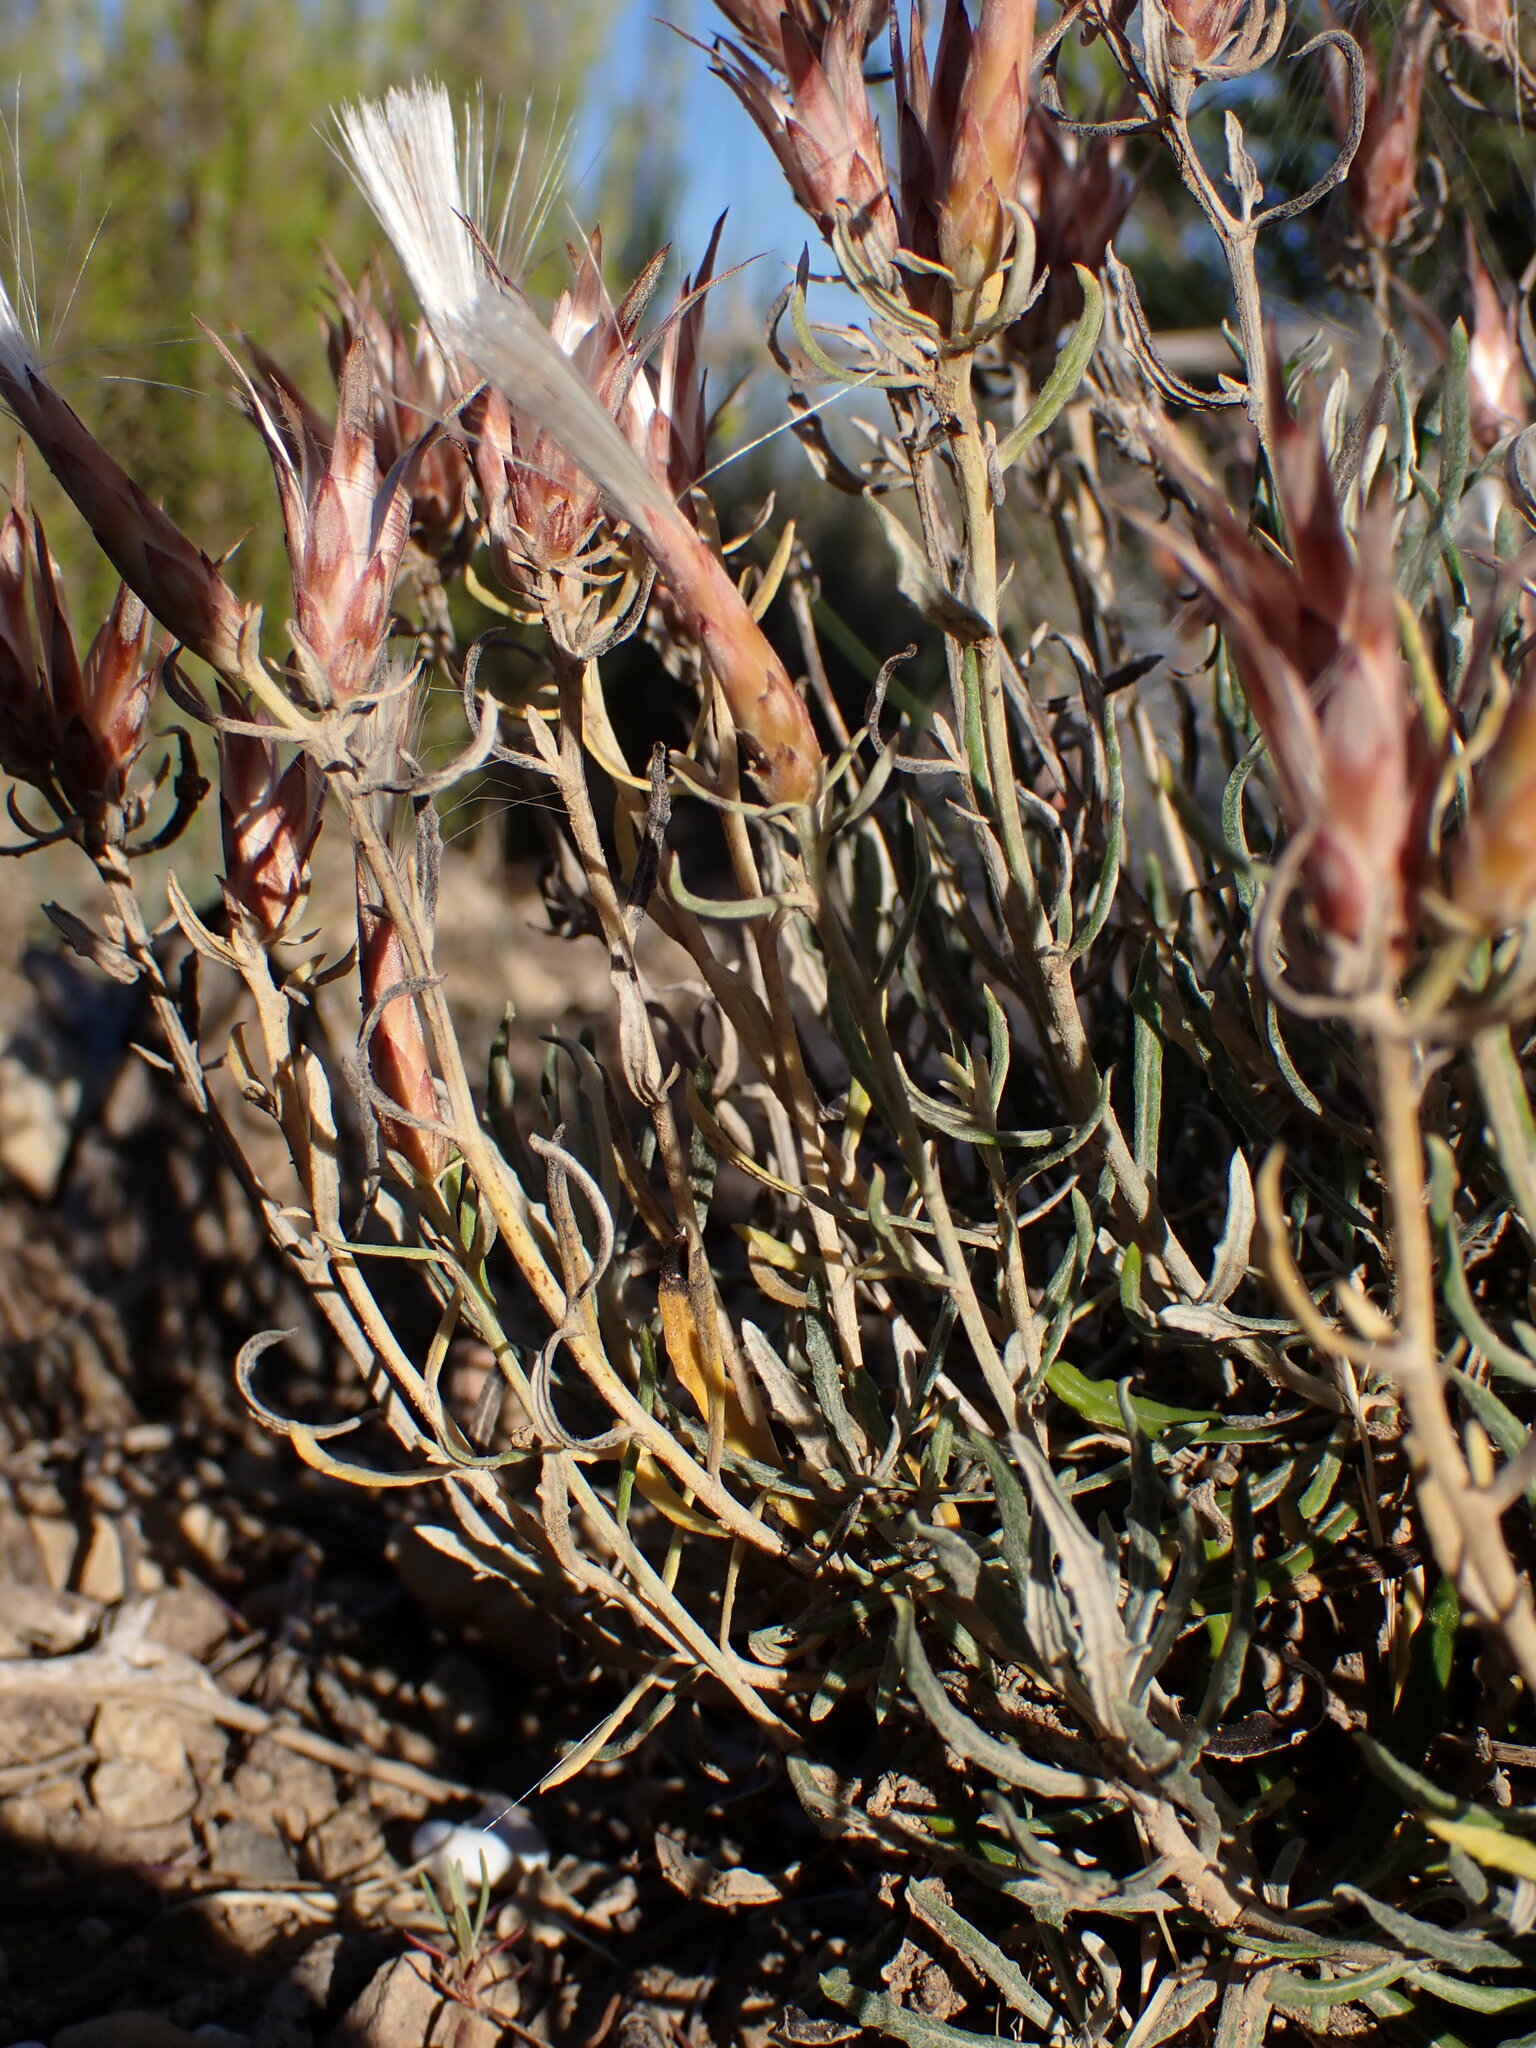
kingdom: Plantae
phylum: Tracheophyta
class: Magnoliopsida
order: Asterales
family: Asteraceae
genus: Staehelina
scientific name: Staehelina dubia
